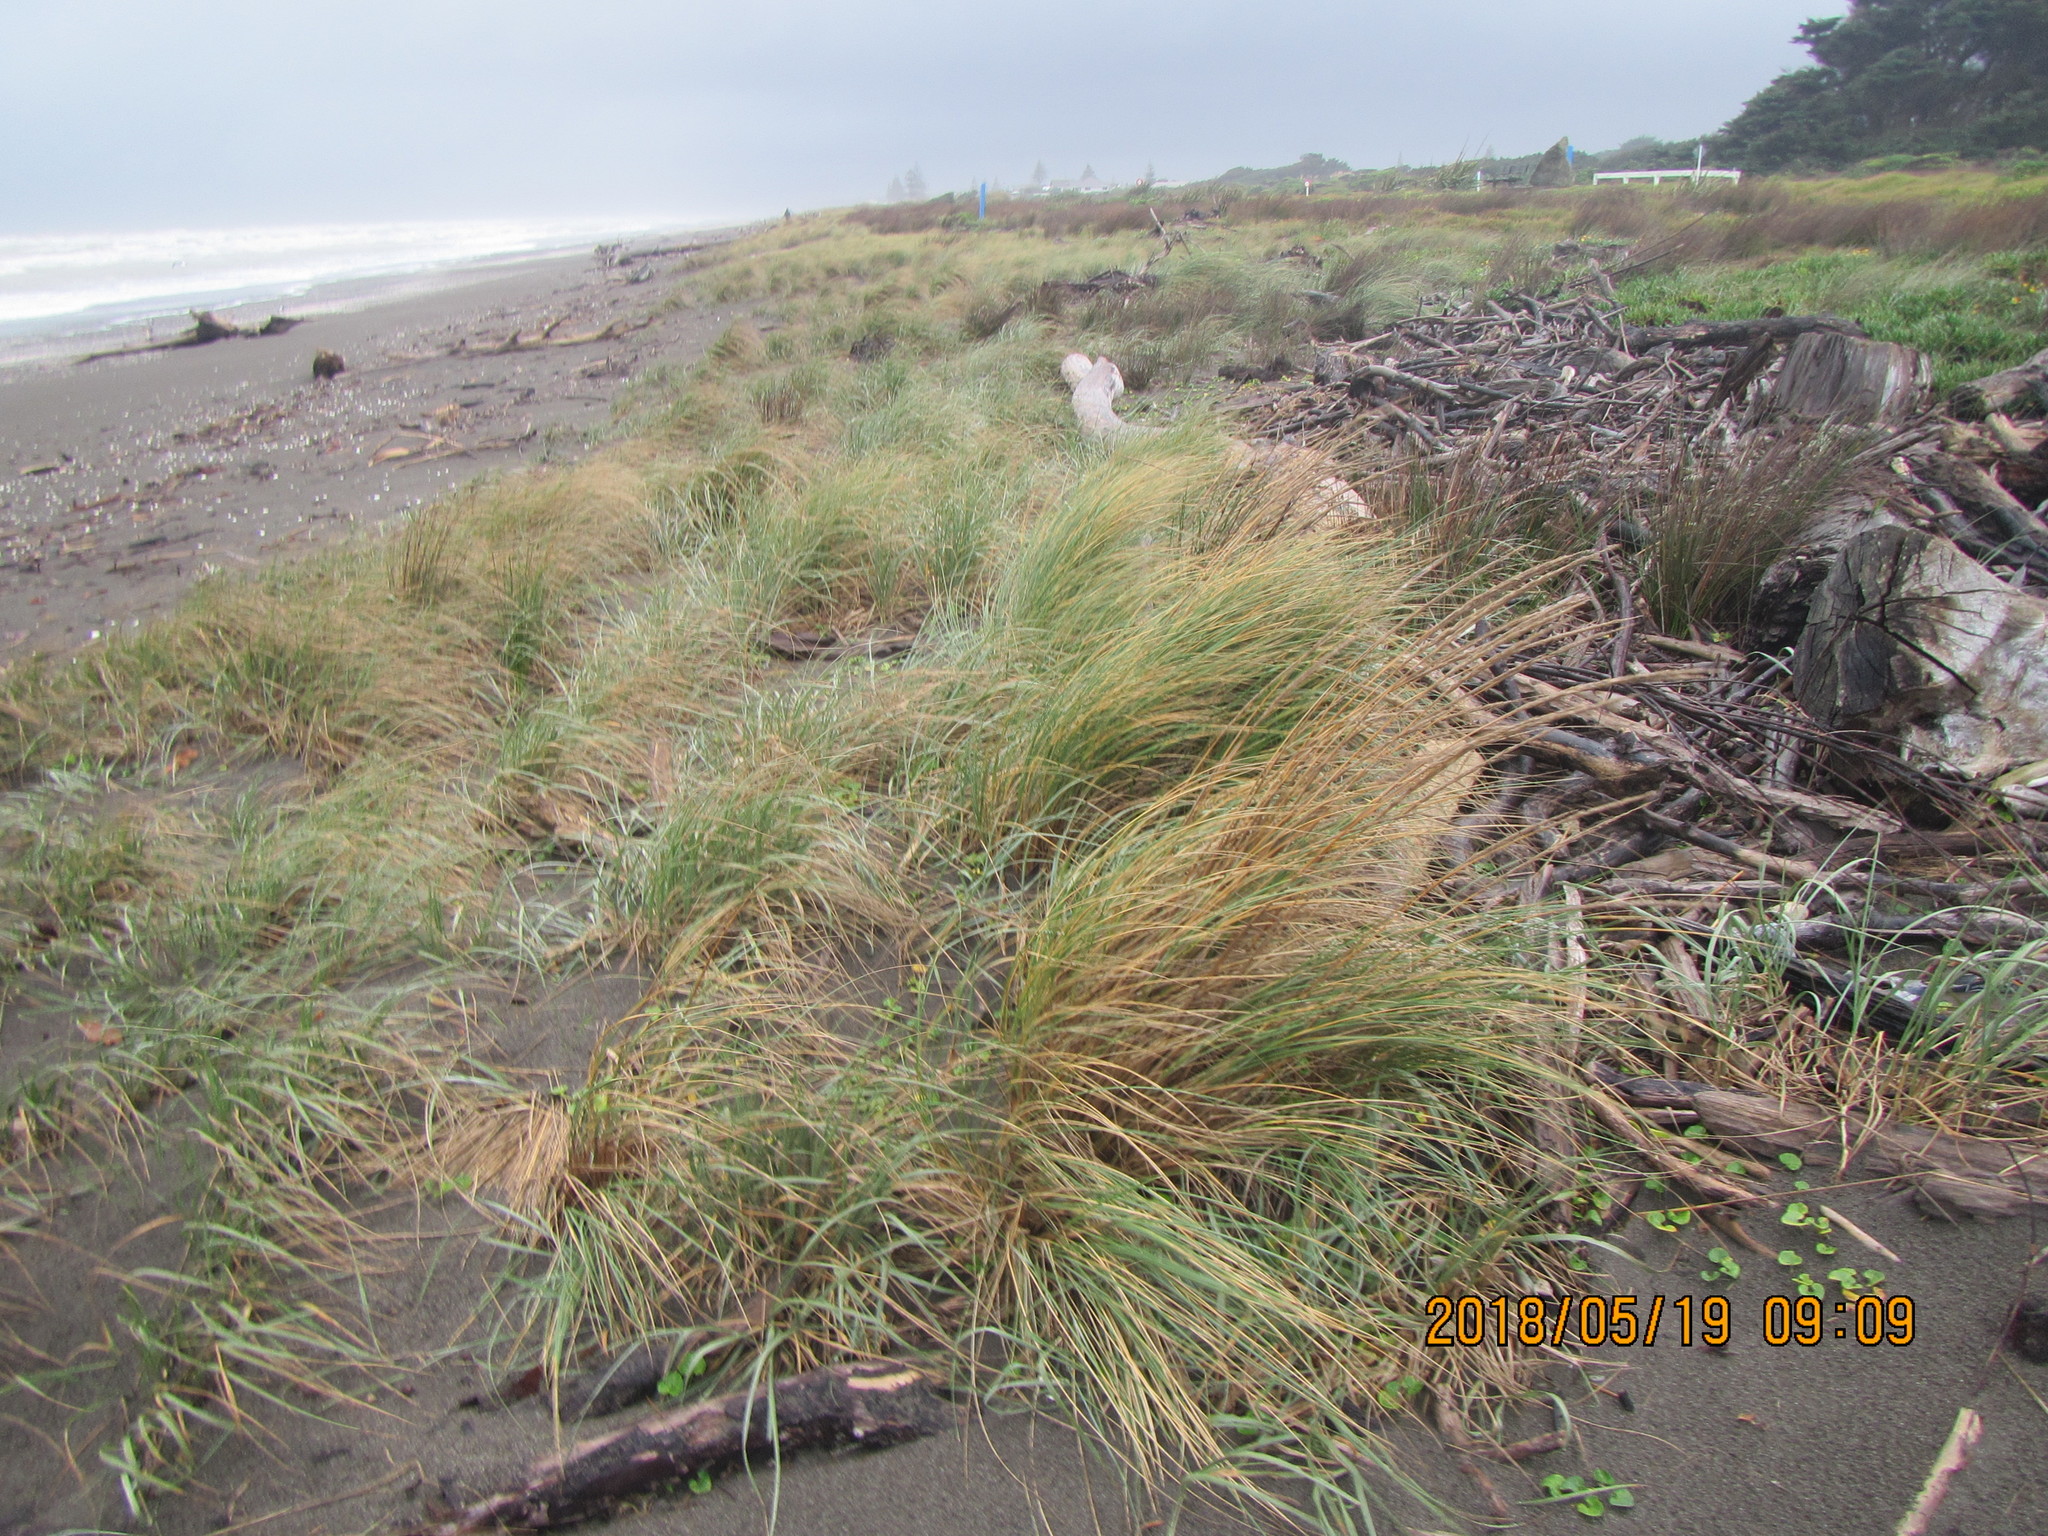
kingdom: Plantae
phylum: Tracheophyta
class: Liliopsida
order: Poales
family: Poaceae
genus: Calamagrostis
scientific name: Calamagrostis arenaria
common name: European beachgrass
